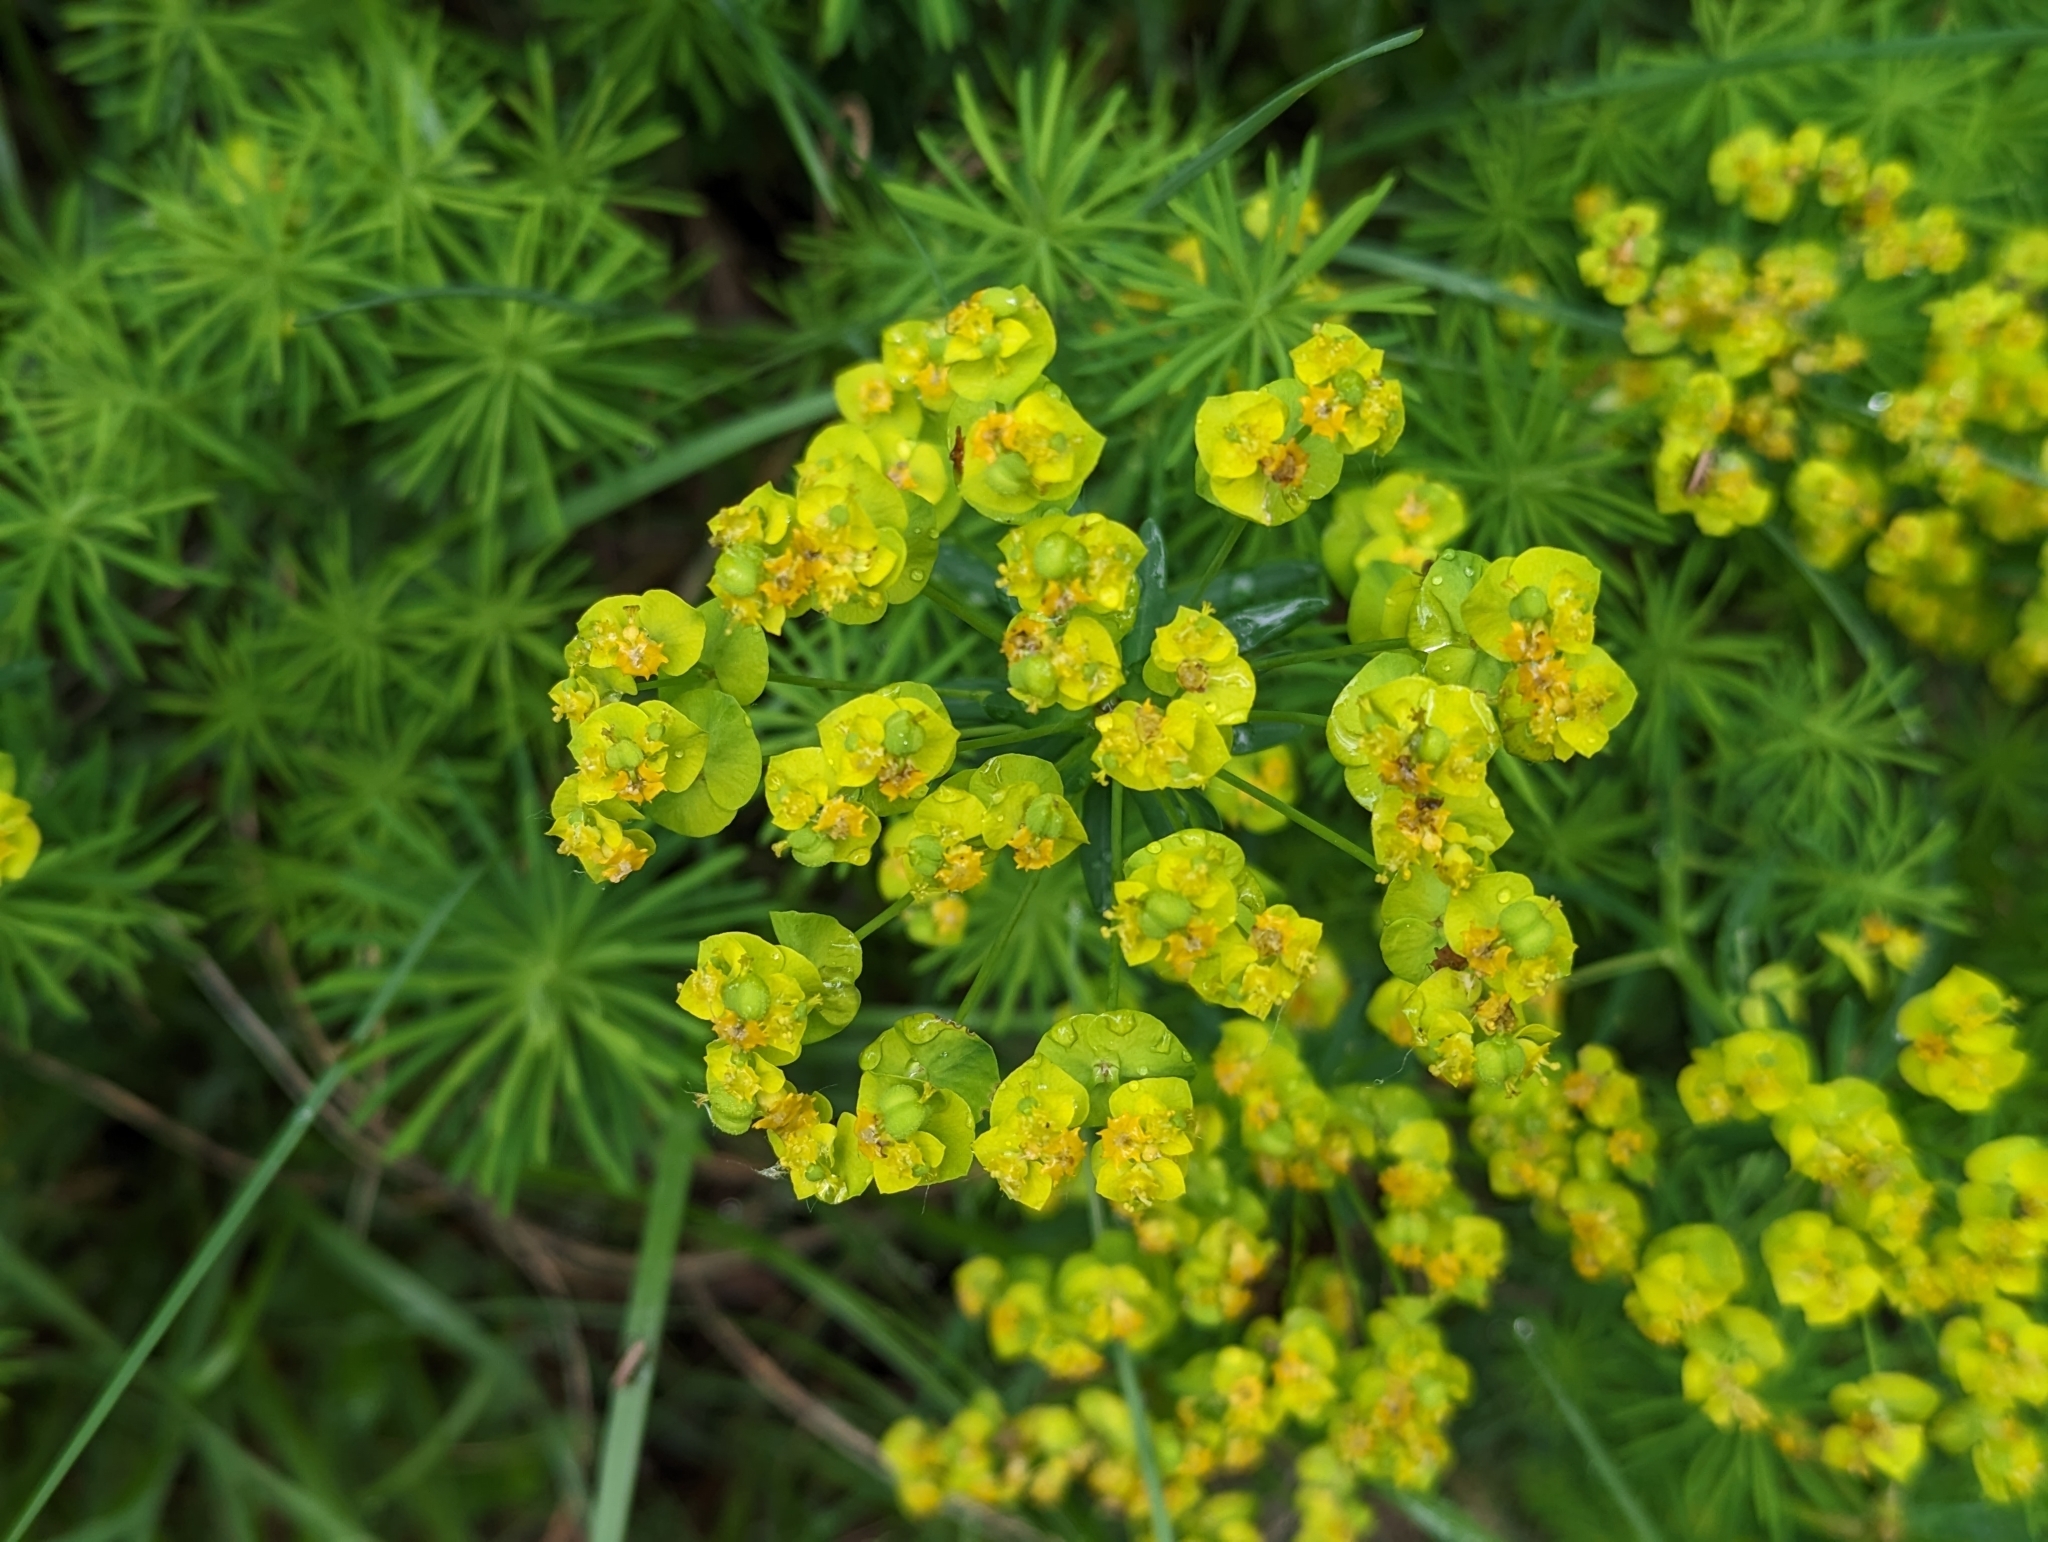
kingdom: Plantae
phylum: Tracheophyta
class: Magnoliopsida
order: Malpighiales
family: Euphorbiaceae
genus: Euphorbia
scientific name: Euphorbia cyparissias
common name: Cypress spurge
